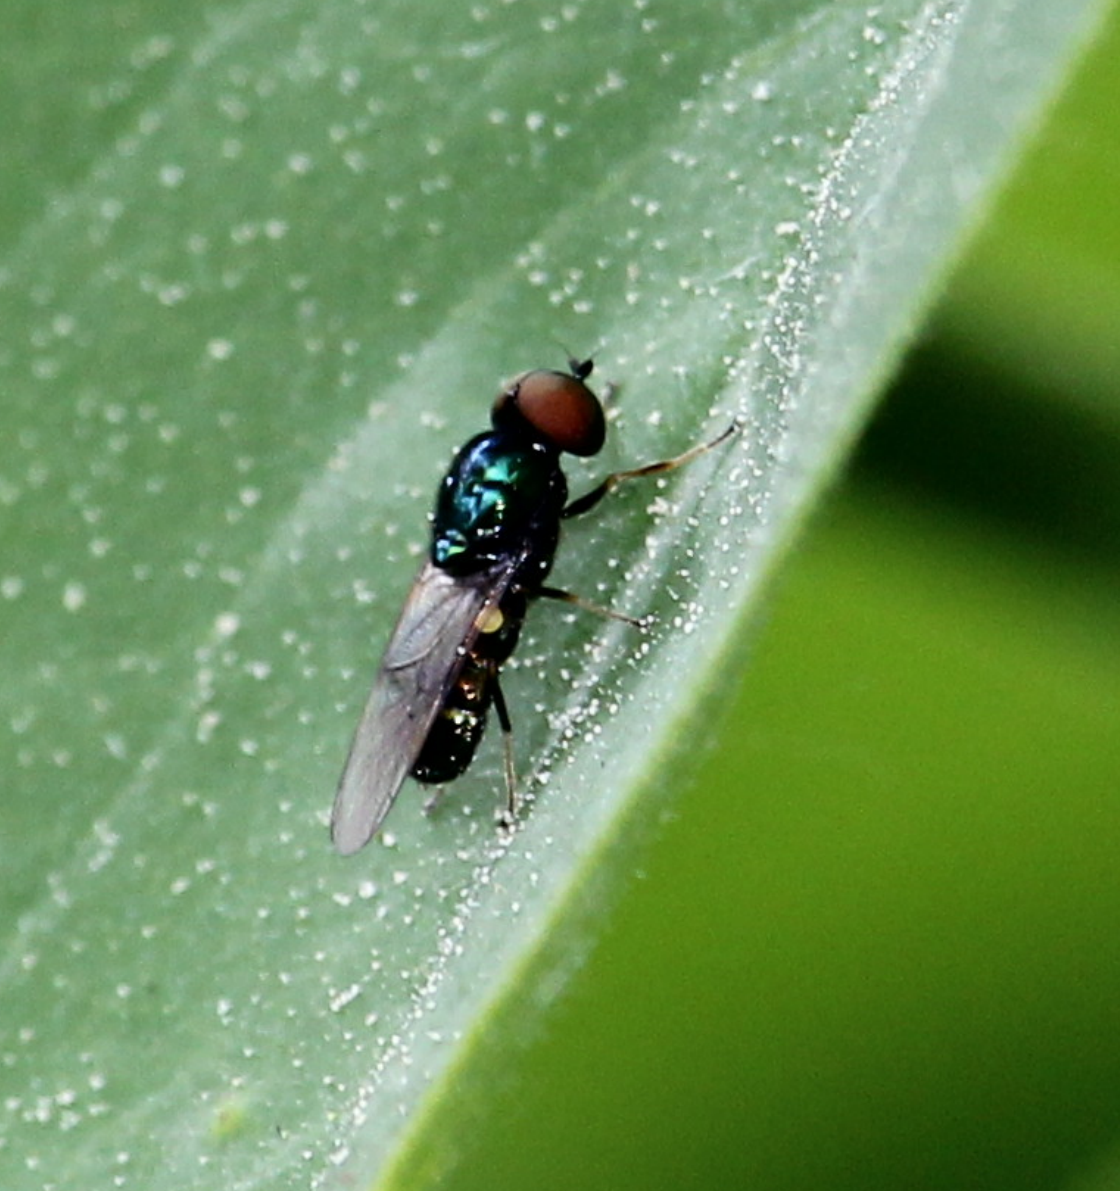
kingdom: Animalia
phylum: Arthropoda
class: Insecta
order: Diptera
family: Stratiomyidae
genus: Microchrysa
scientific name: Microchrysa polita
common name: Black-horned gem
